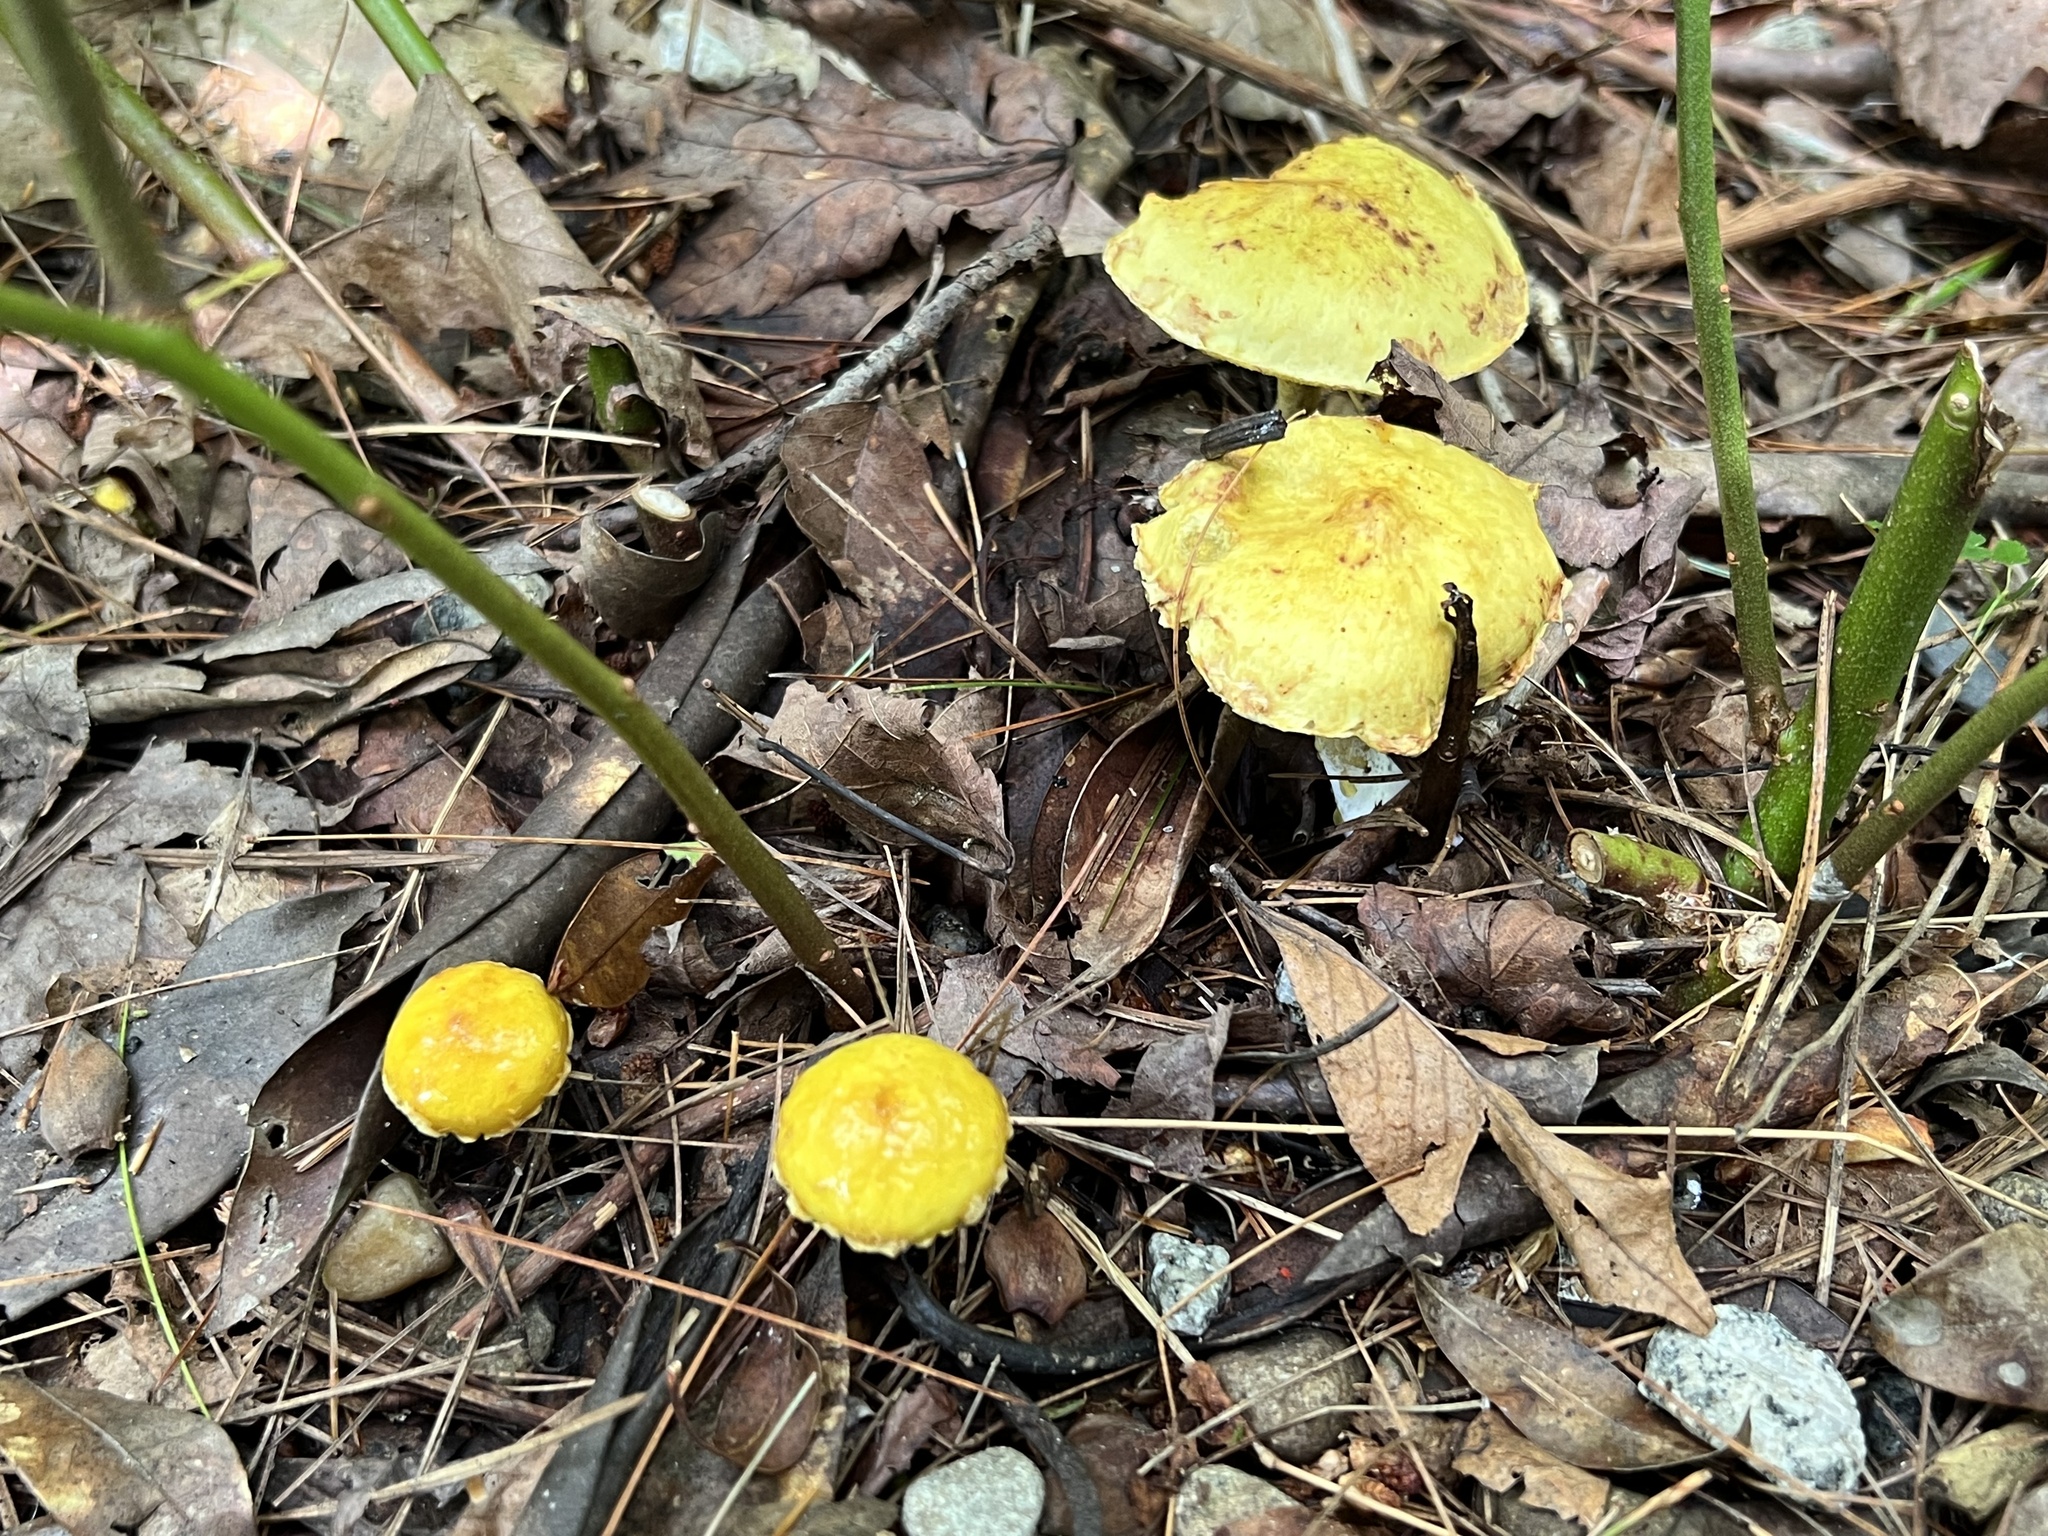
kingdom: Fungi
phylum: Basidiomycota
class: Agaricomycetes
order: Boletales
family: Suillaceae
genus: Suillus
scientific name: Suillus americanus
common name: Chicken fat mushroom
